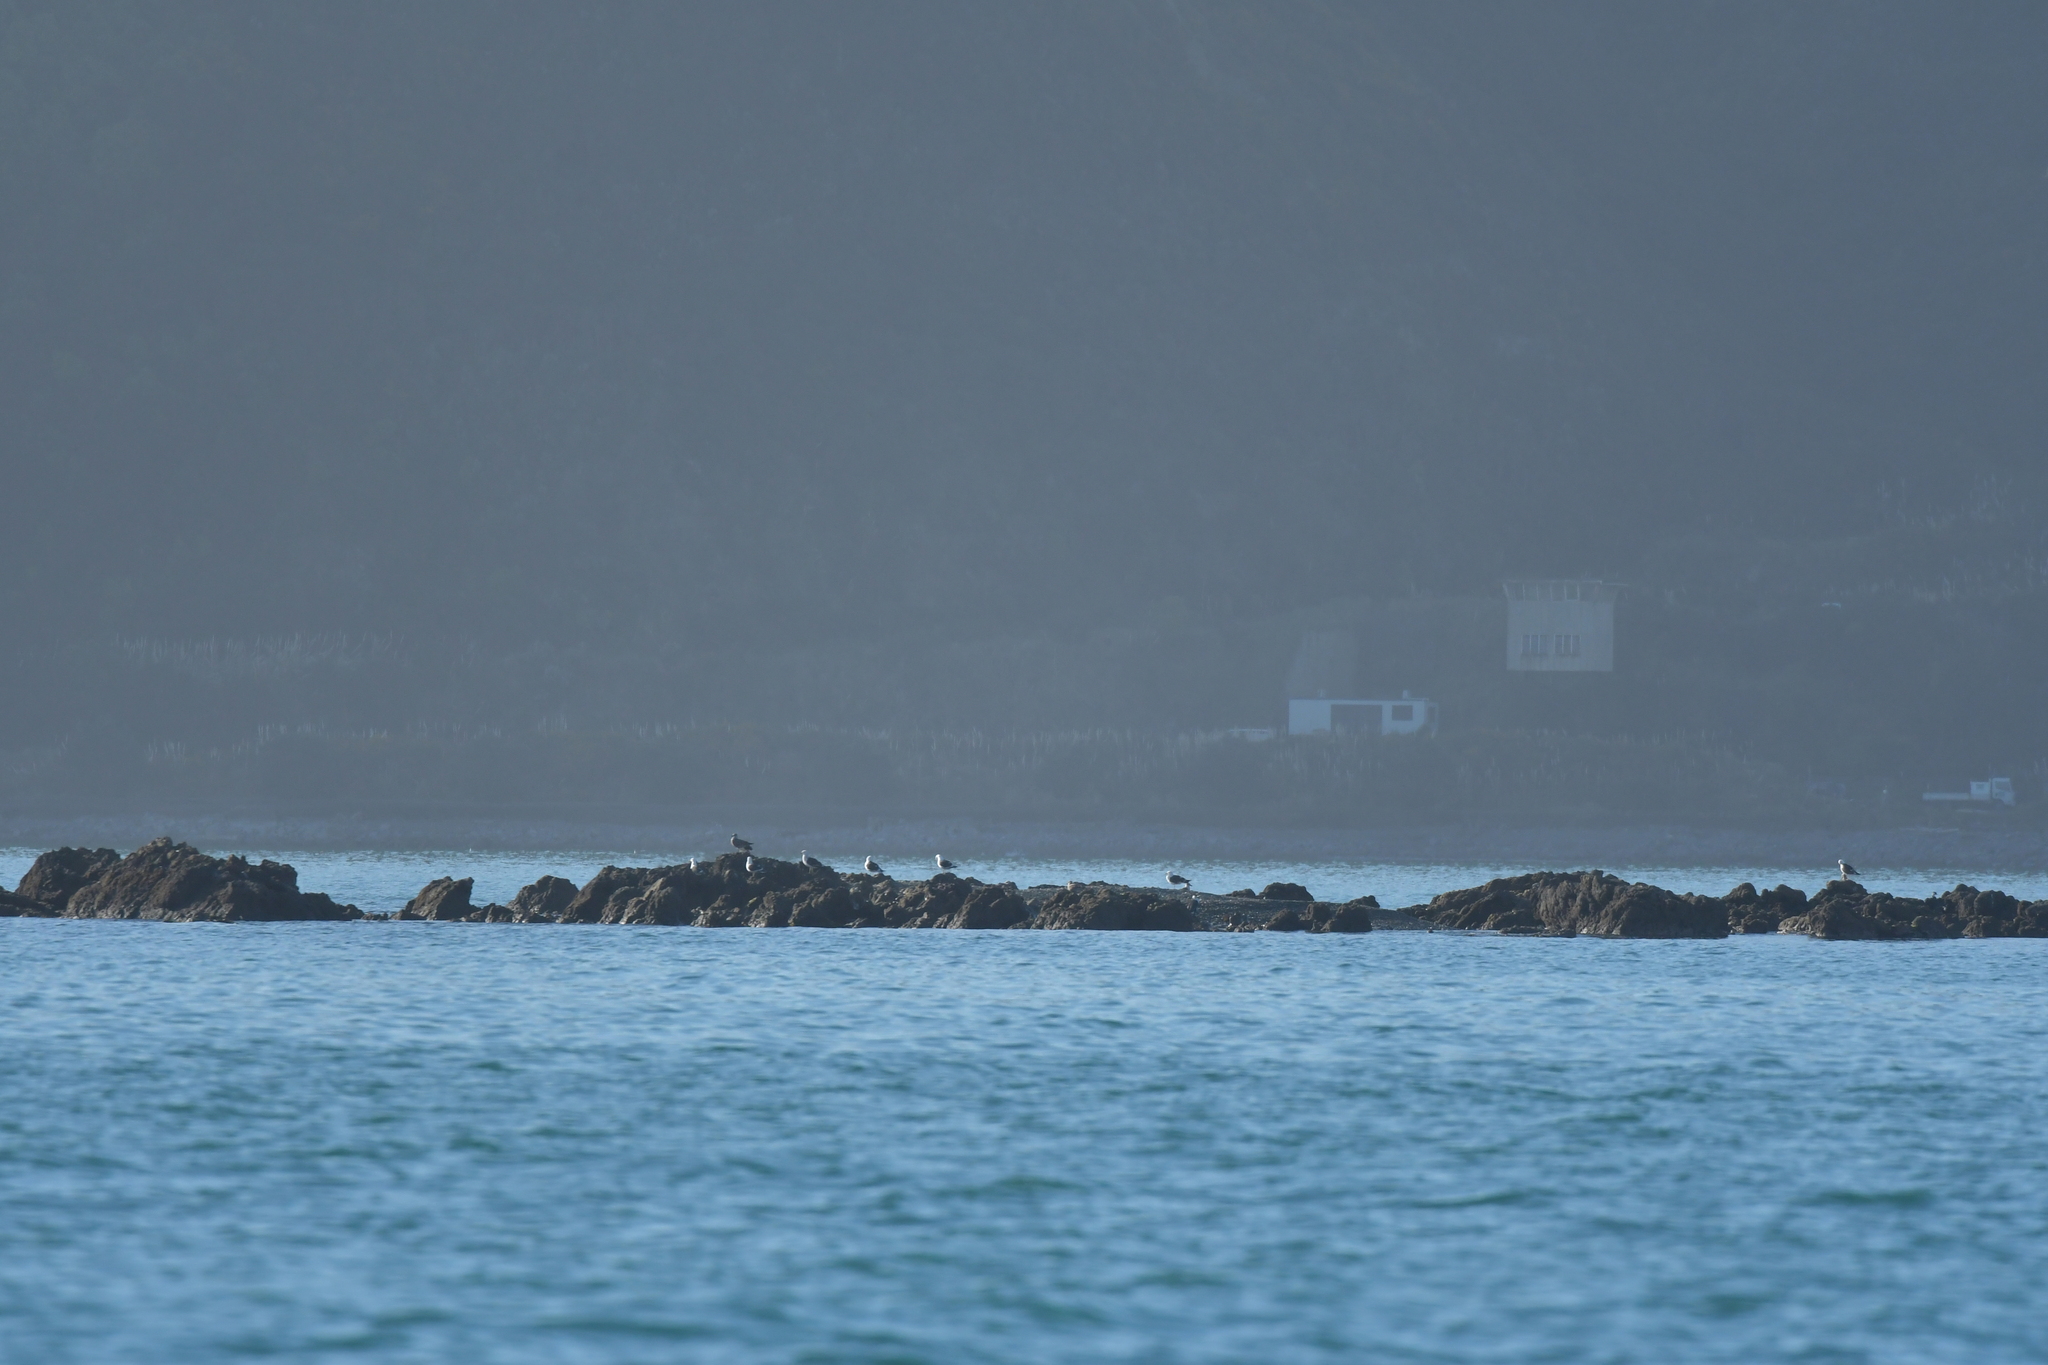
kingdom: Animalia
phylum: Chordata
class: Aves
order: Charadriiformes
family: Laridae
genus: Larus
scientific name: Larus dominicanus
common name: Kelp gull
